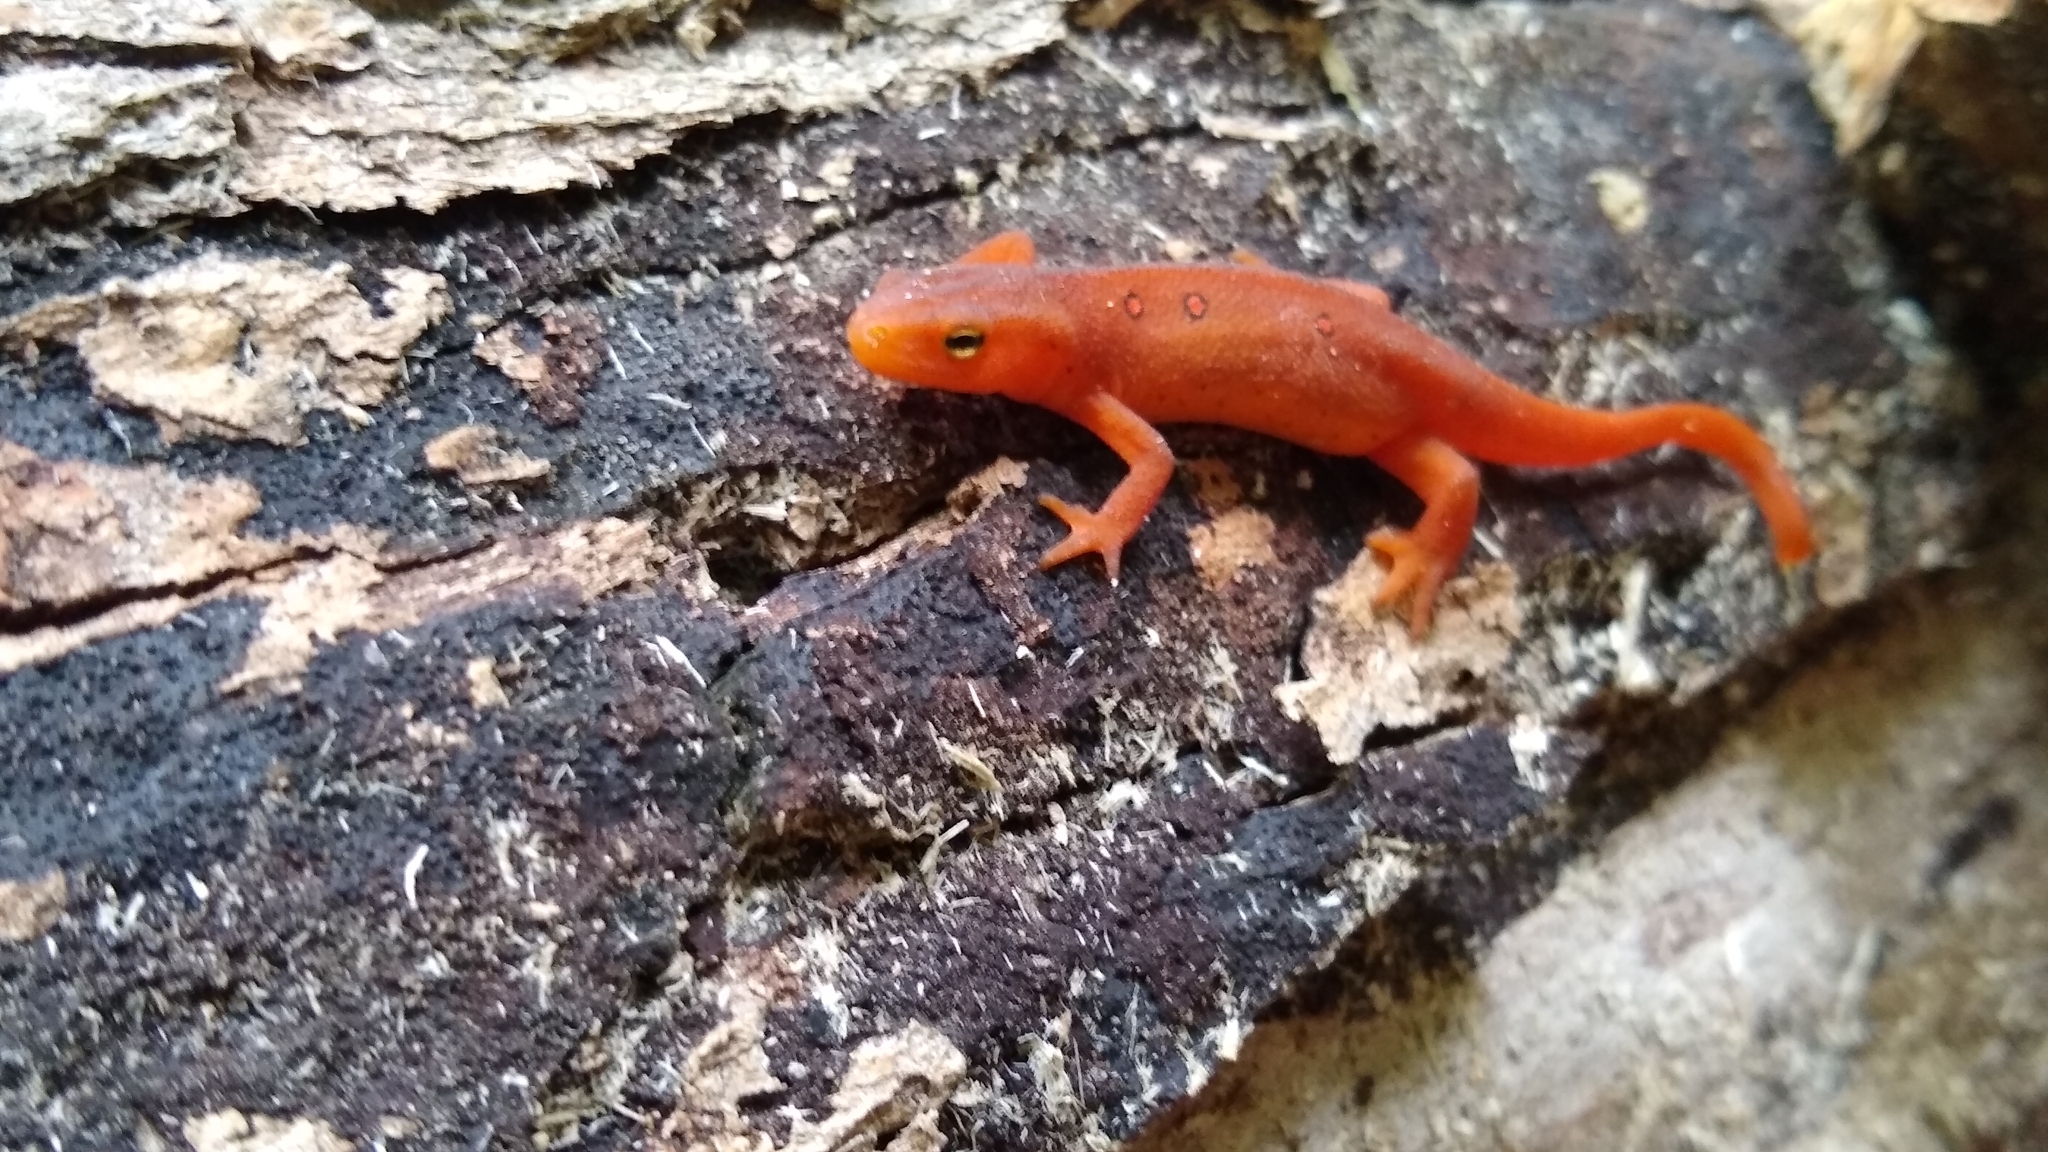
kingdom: Animalia
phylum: Chordata
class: Amphibia
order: Caudata
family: Salamandridae
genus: Notophthalmus
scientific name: Notophthalmus viridescens
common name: Eastern newt
